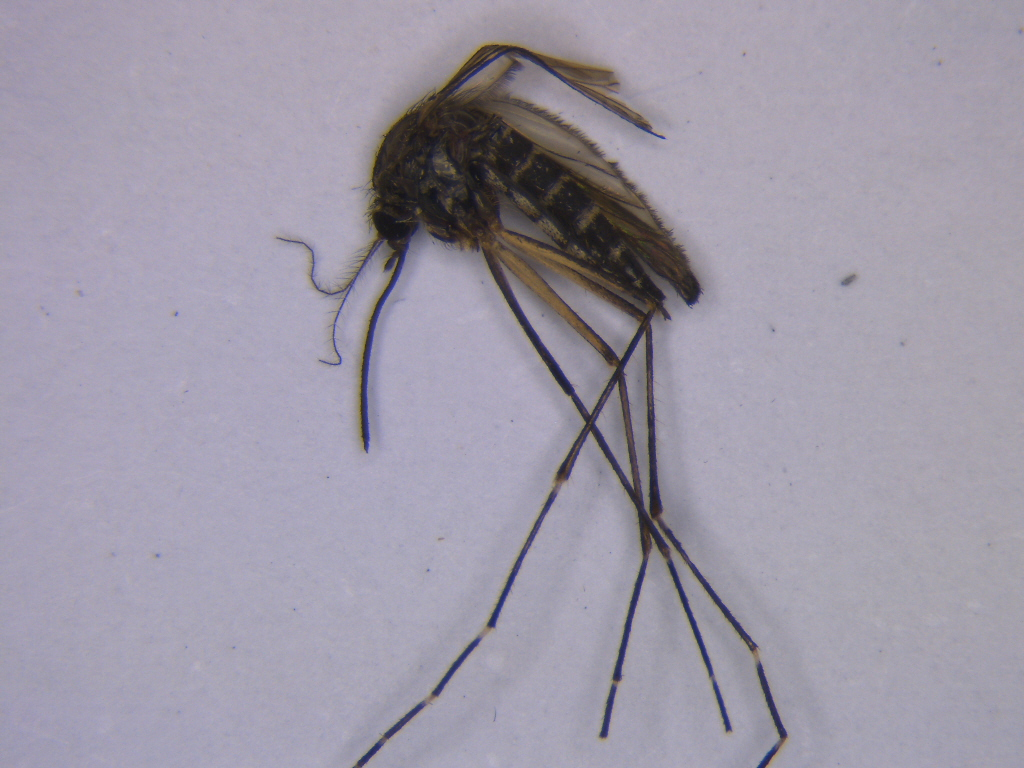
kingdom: Animalia
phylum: Arthropoda
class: Insecta
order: Diptera
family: Culicidae
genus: Aedes
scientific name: Aedes antipodeus
